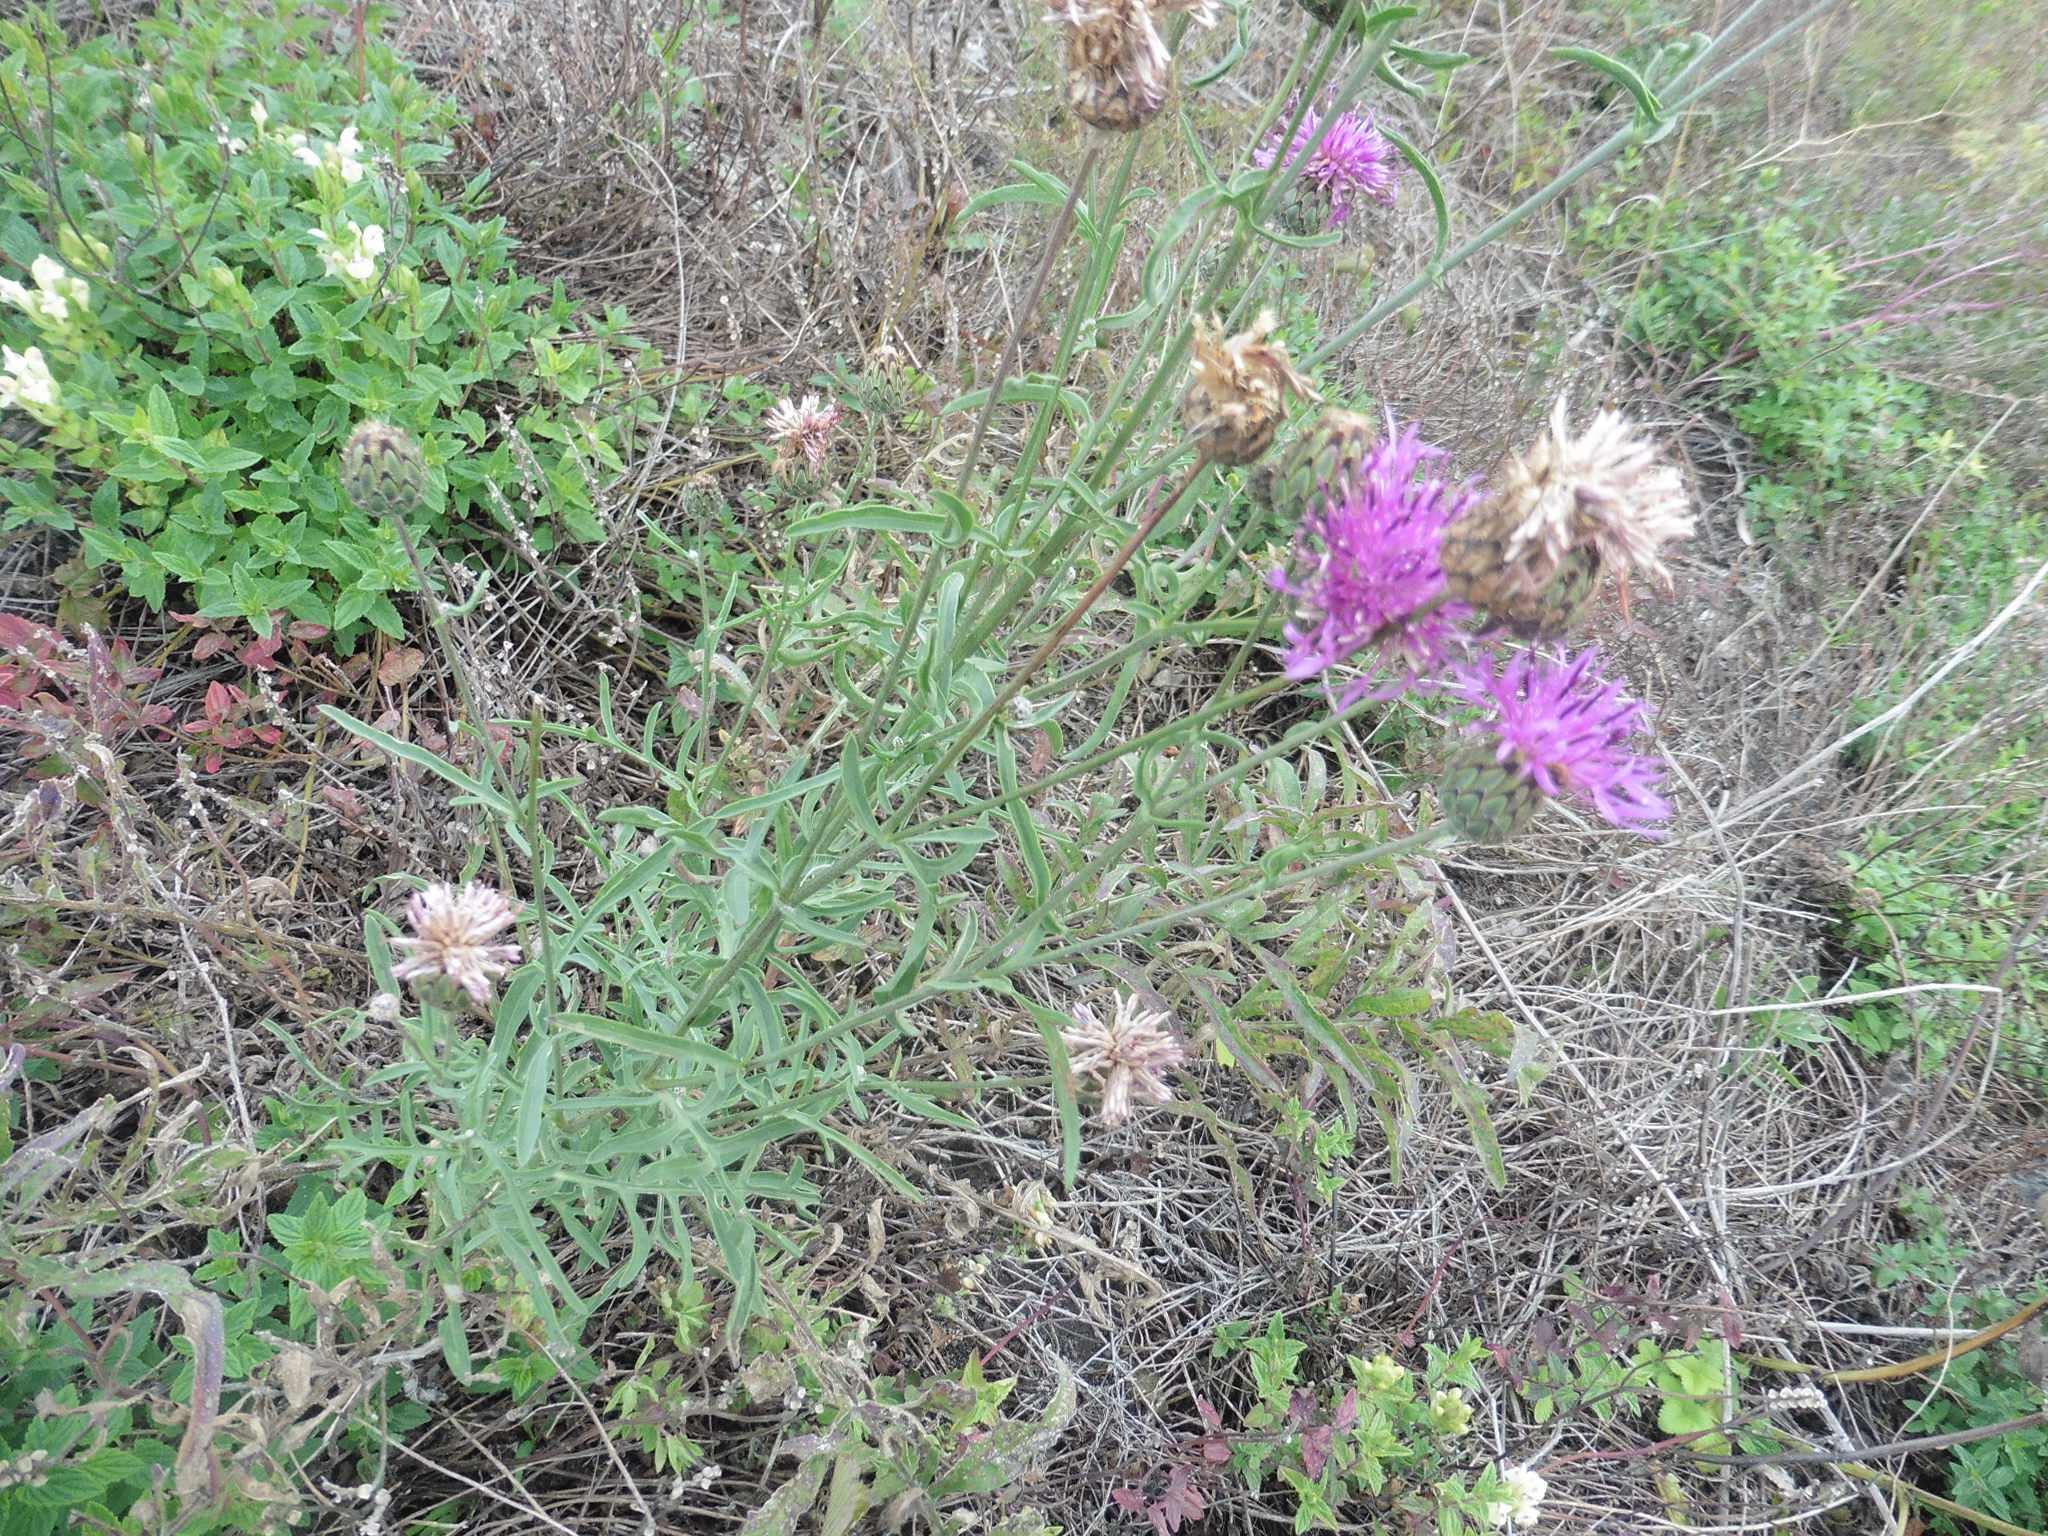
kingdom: Plantae
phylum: Tracheophyta
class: Magnoliopsida
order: Asterales
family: Asteraceae
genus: Centaurea
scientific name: Centaurea scabiosa
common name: Greater knapweed
